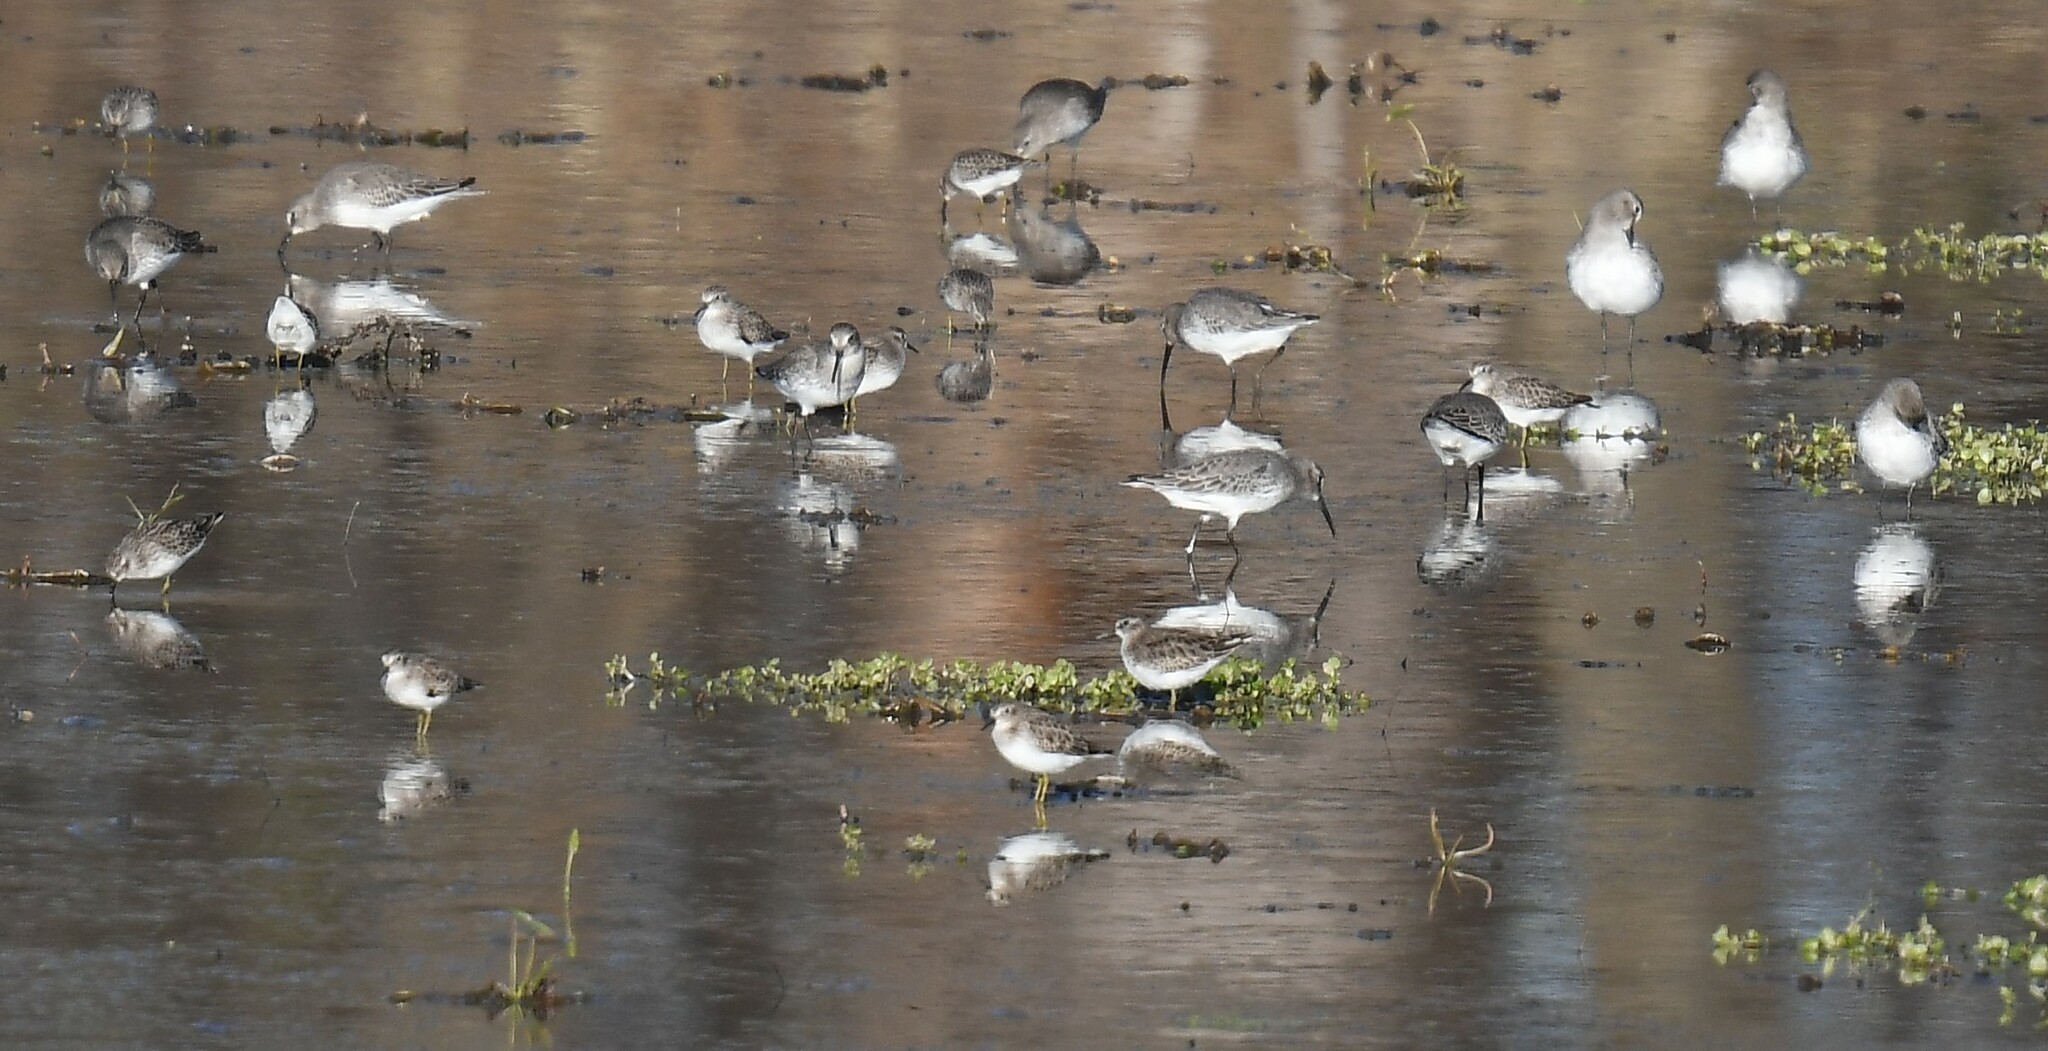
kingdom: Animalia
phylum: Chordata
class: Aves
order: Charadriiformes
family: Scolopacidae
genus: Calidris
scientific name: Calidris minutilla
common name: Least sandpiper
